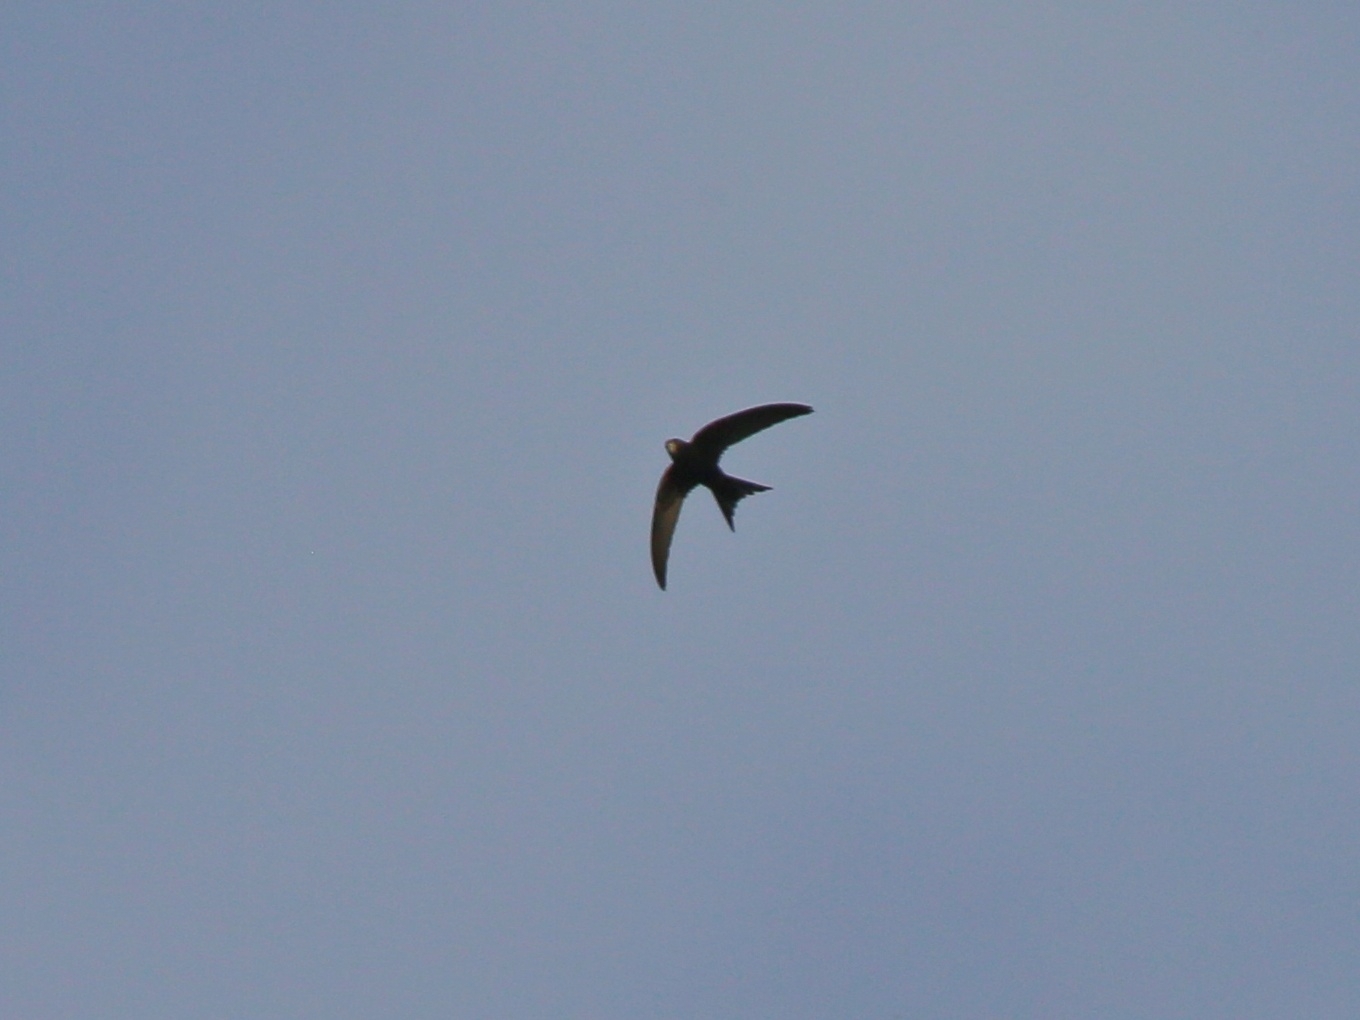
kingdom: Animalia
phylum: Chordata
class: Aves
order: Apodiformes
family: Apodidae
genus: Apus
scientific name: Apus apus
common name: Common swift
